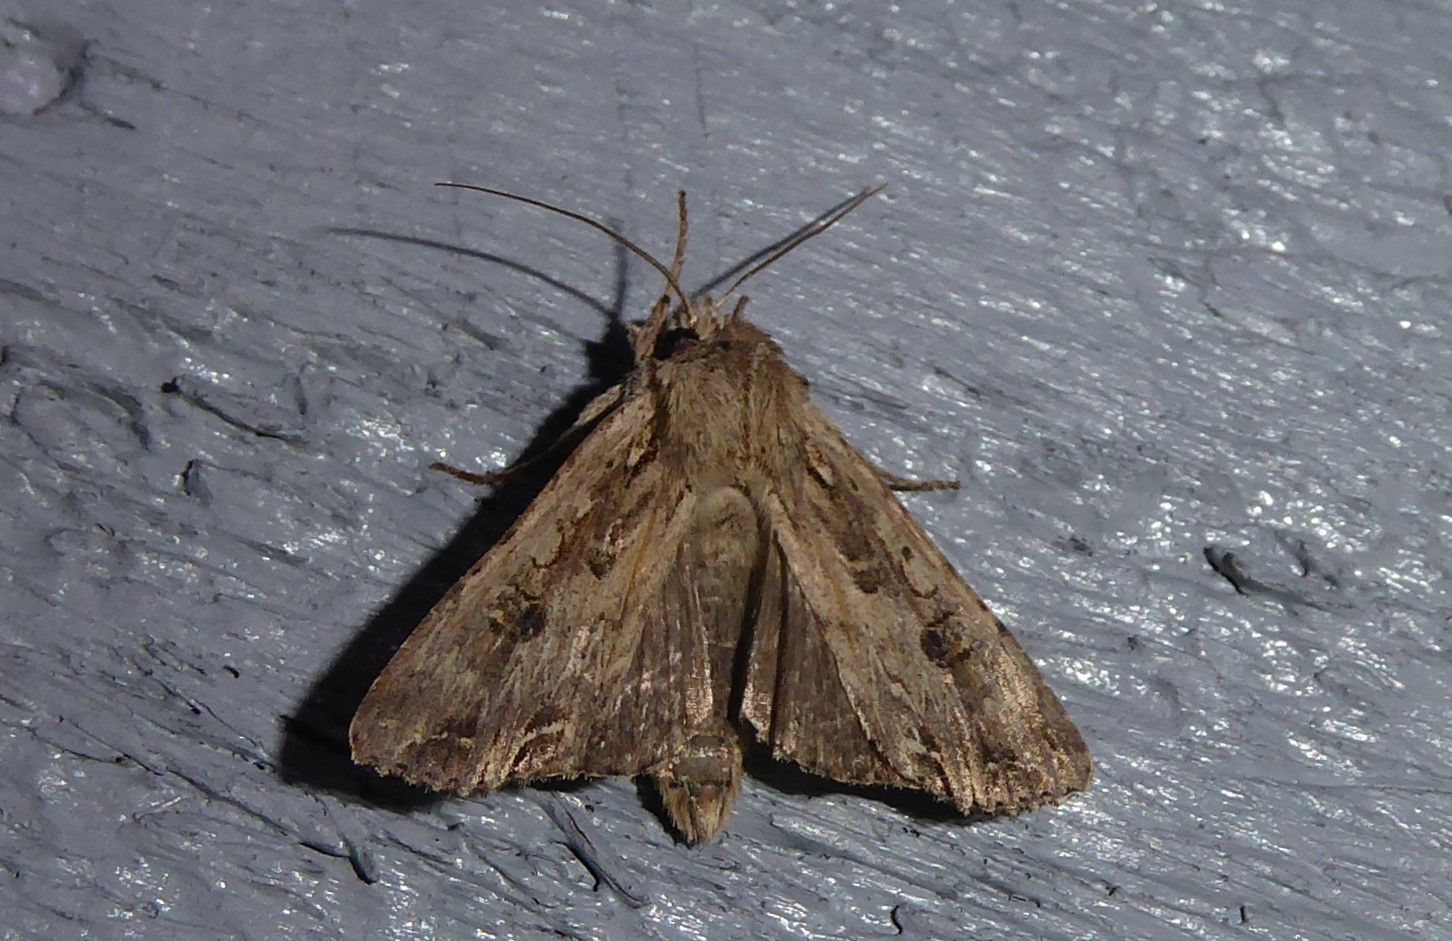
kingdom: Animalia
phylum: Arthropoda
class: Insecta
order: Lepidoptera
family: Noctuidae
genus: Ichneutica
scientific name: Ichneutica lignana
